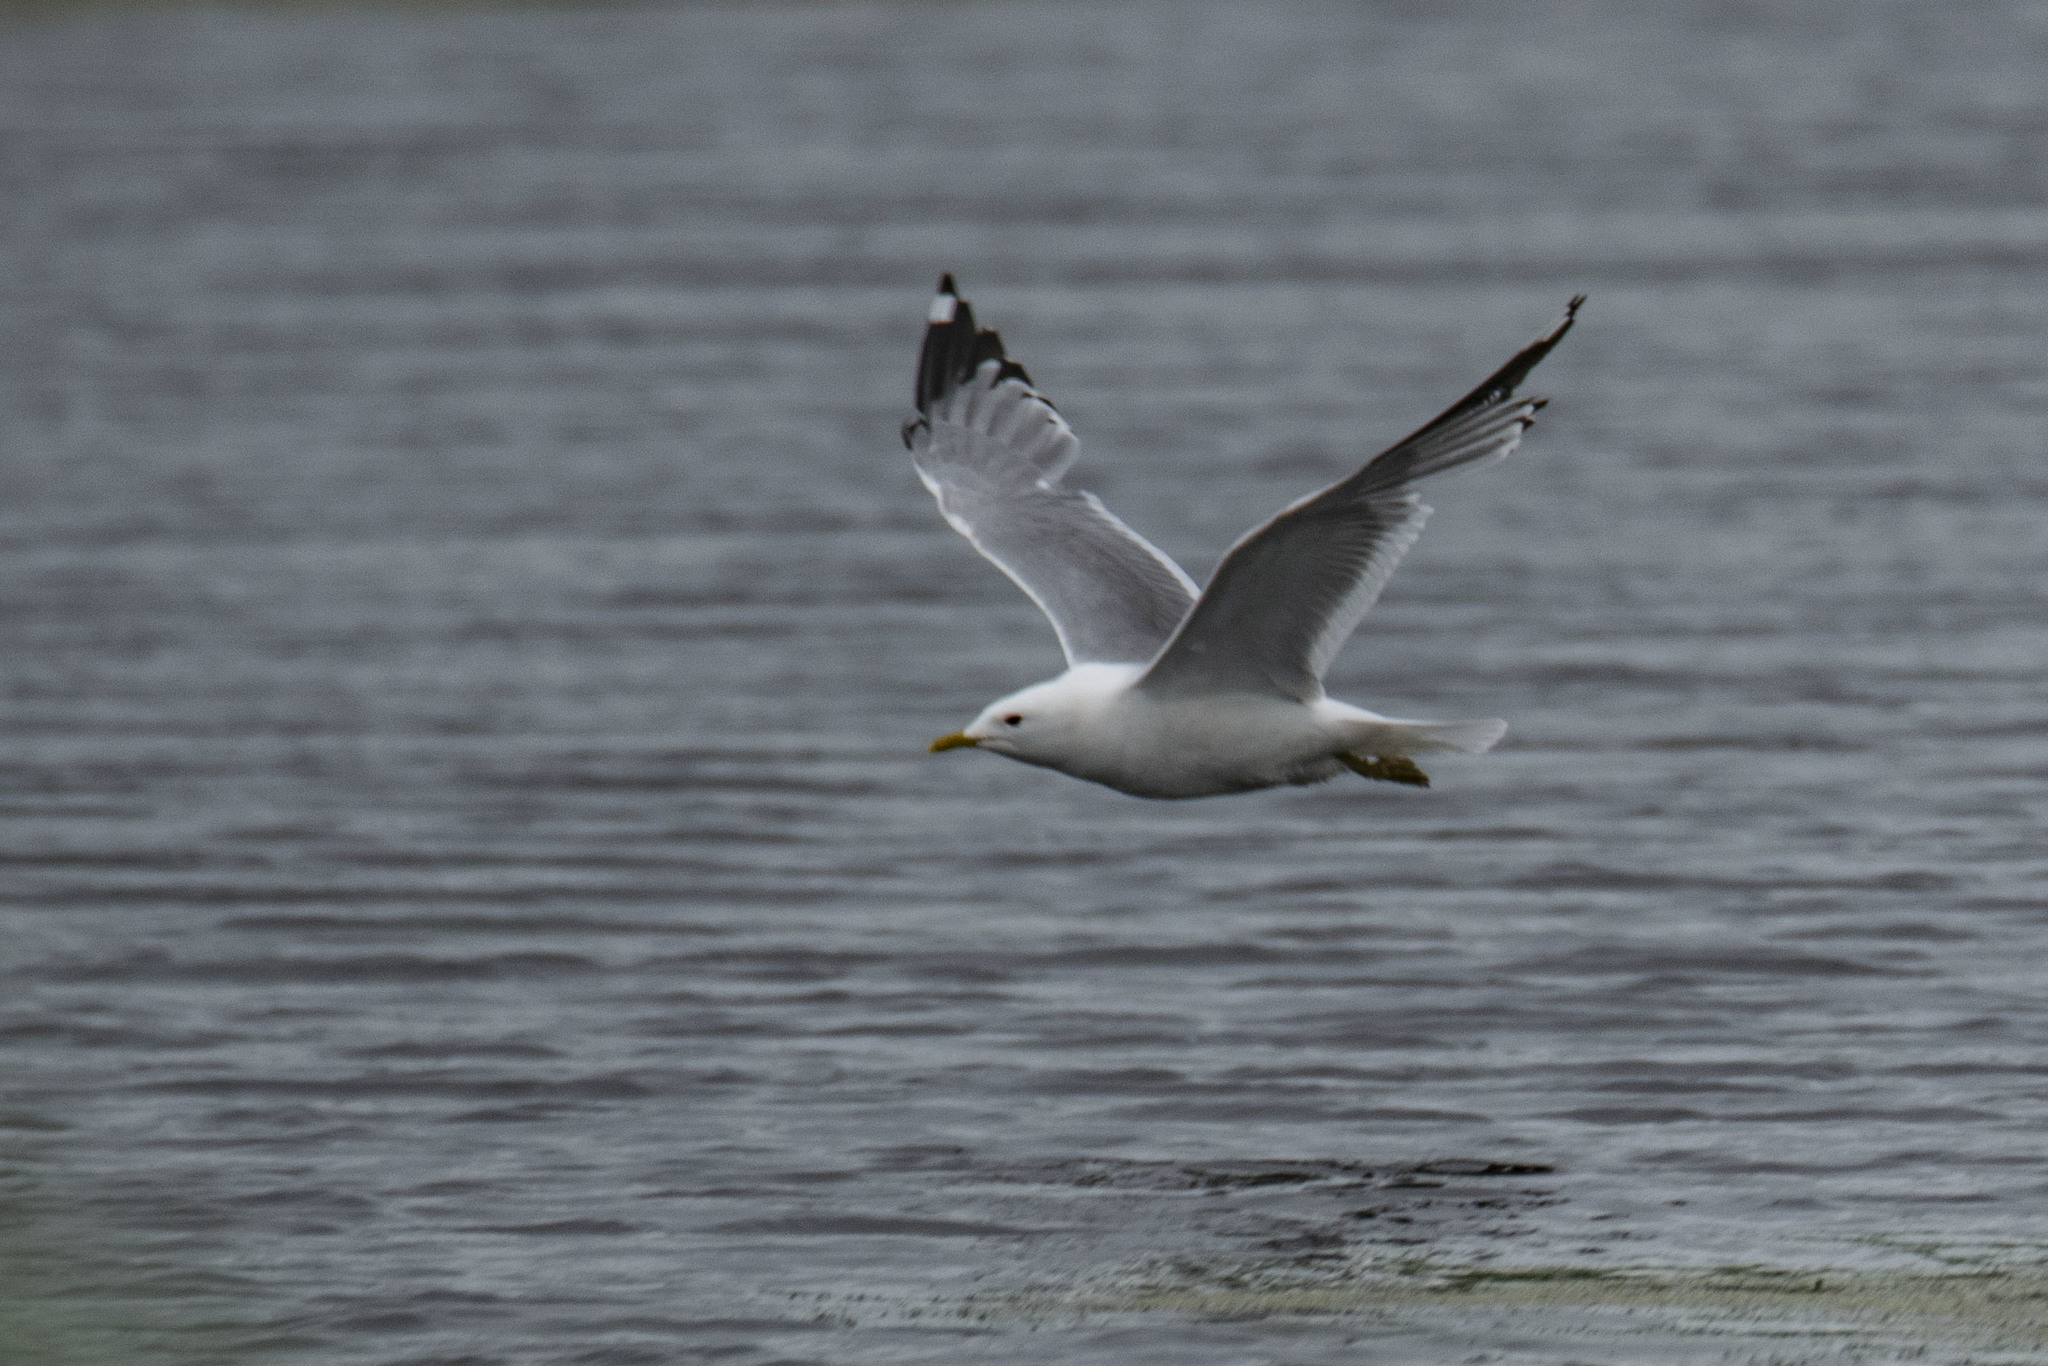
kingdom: Animalia
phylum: Chordata
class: Aves
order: Charadriiformes
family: Laridae
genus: Larus
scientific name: Larus canus
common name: Mew gull
